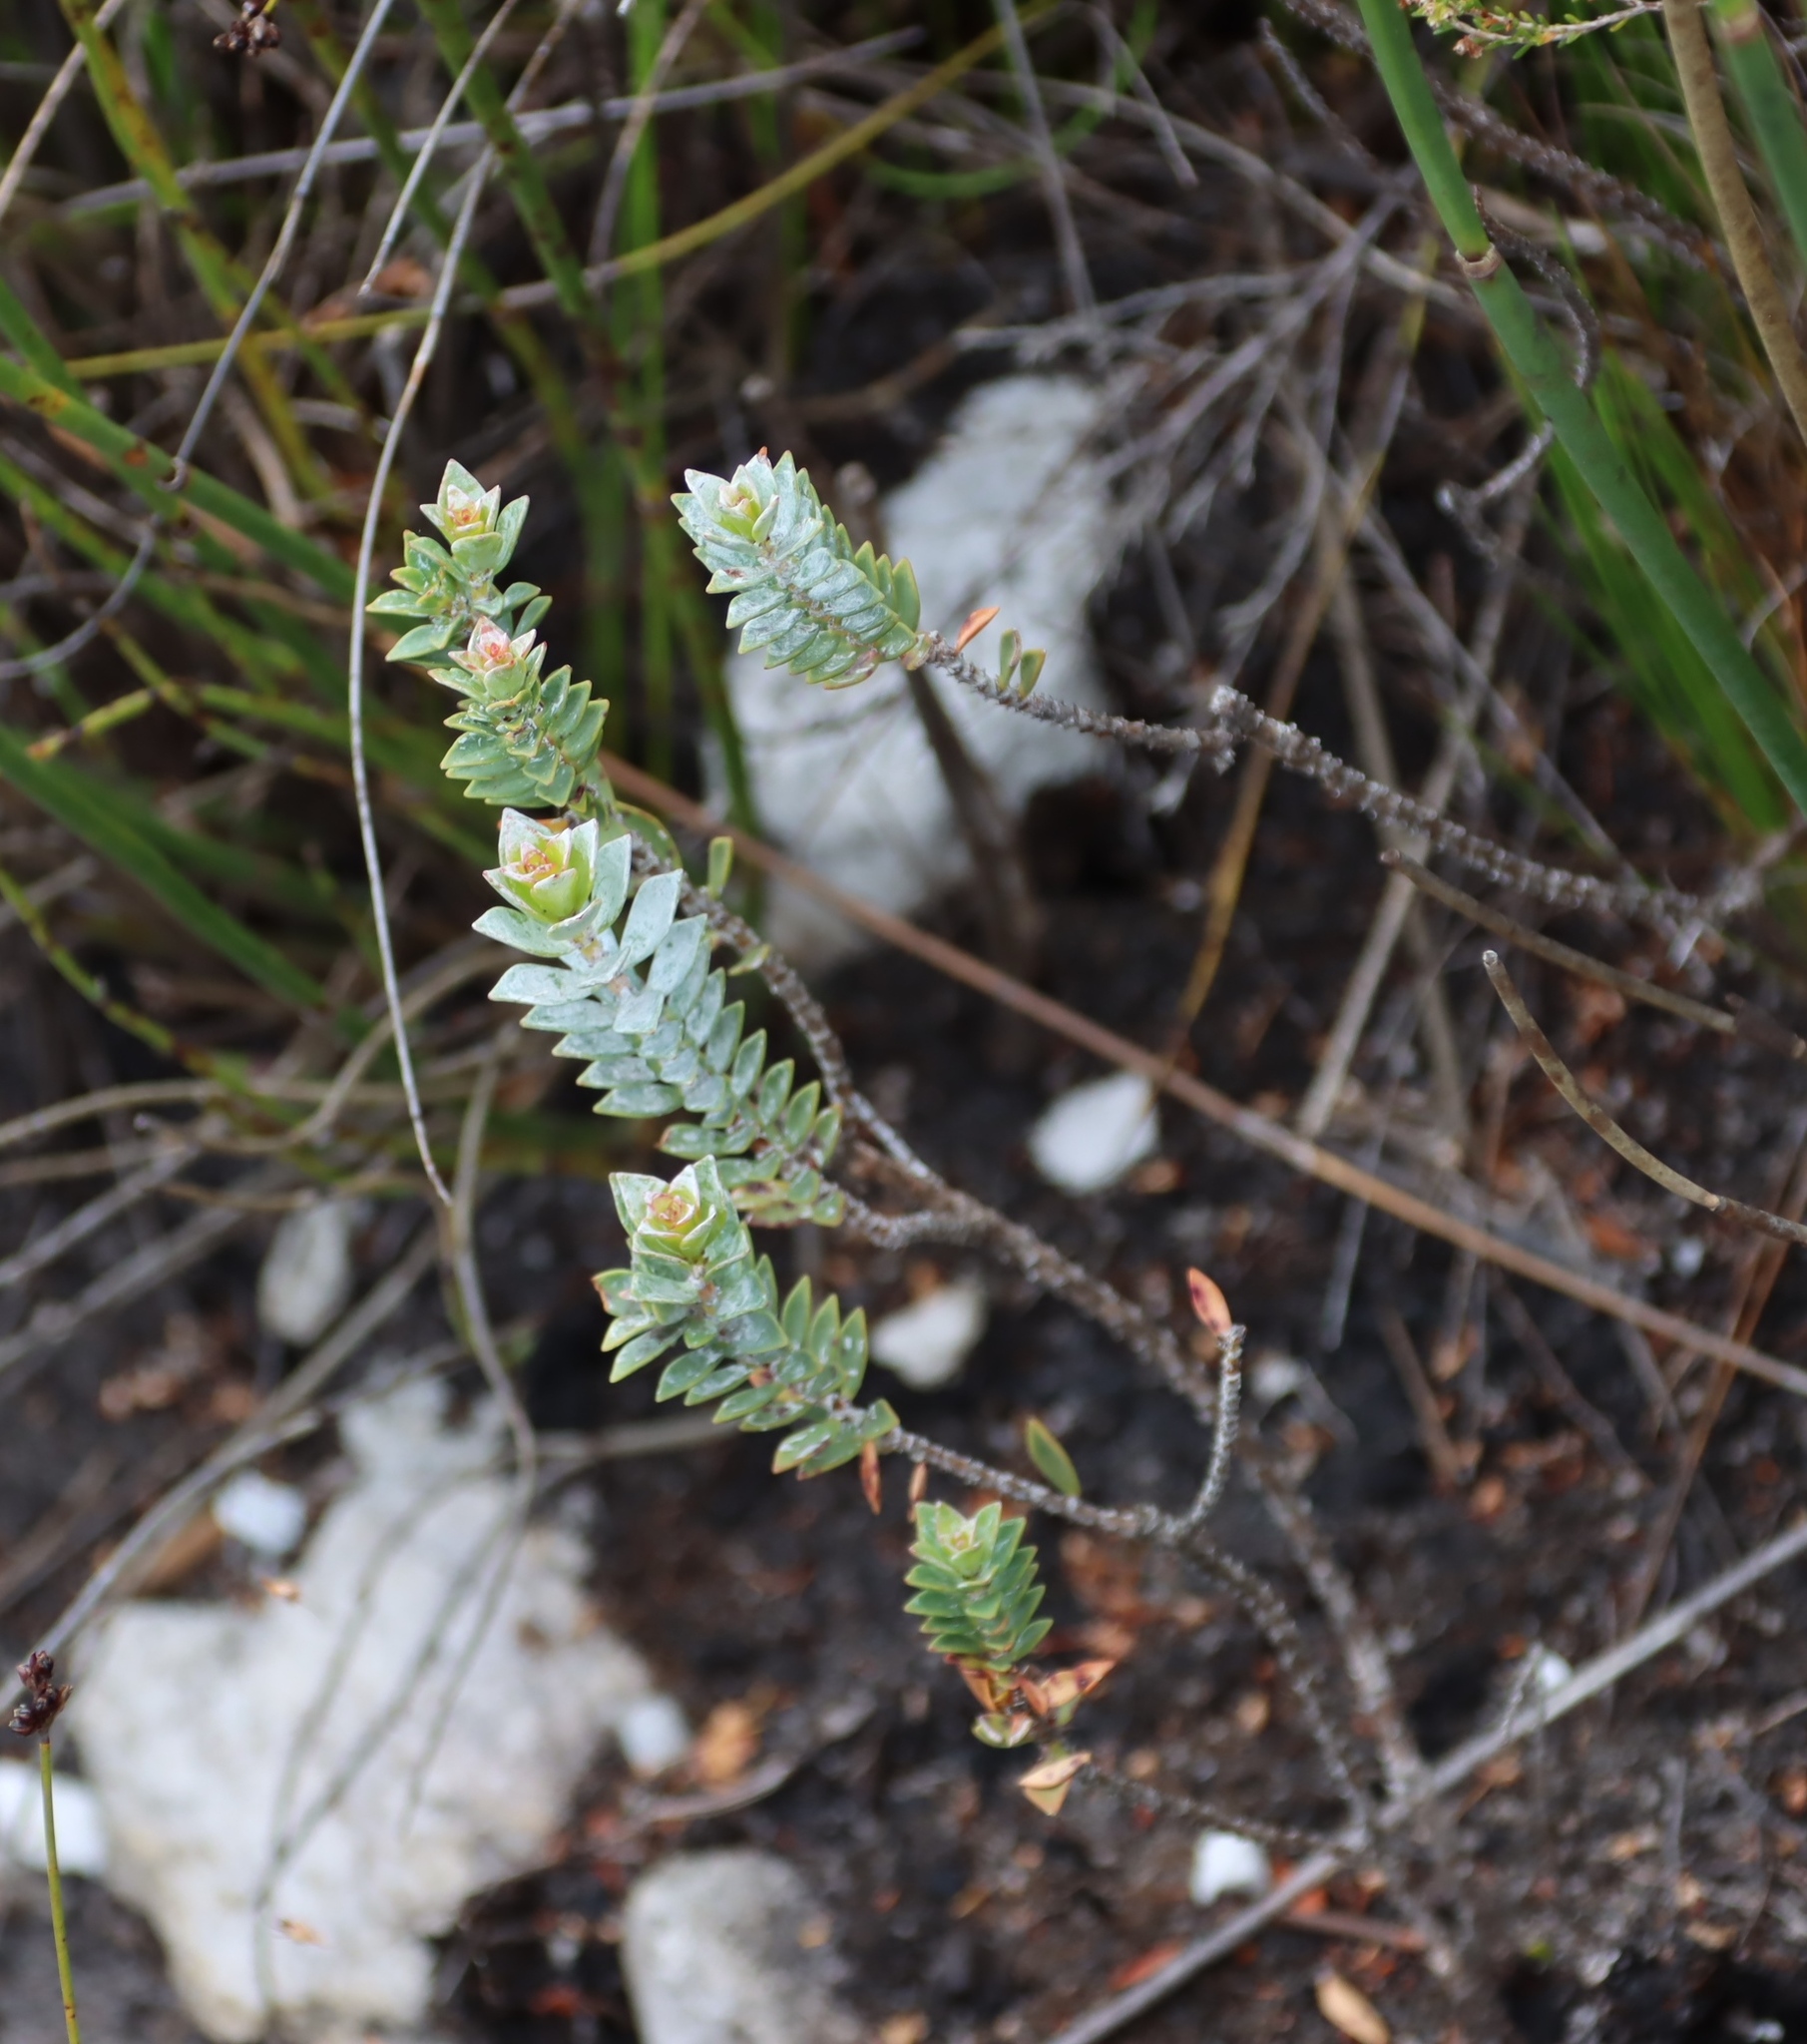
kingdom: Plantae
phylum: Tracheophyta
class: Magnoliopsida
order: Myrtales
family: Penaeaceae
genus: Saltera
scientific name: Saltera sarcocolla
